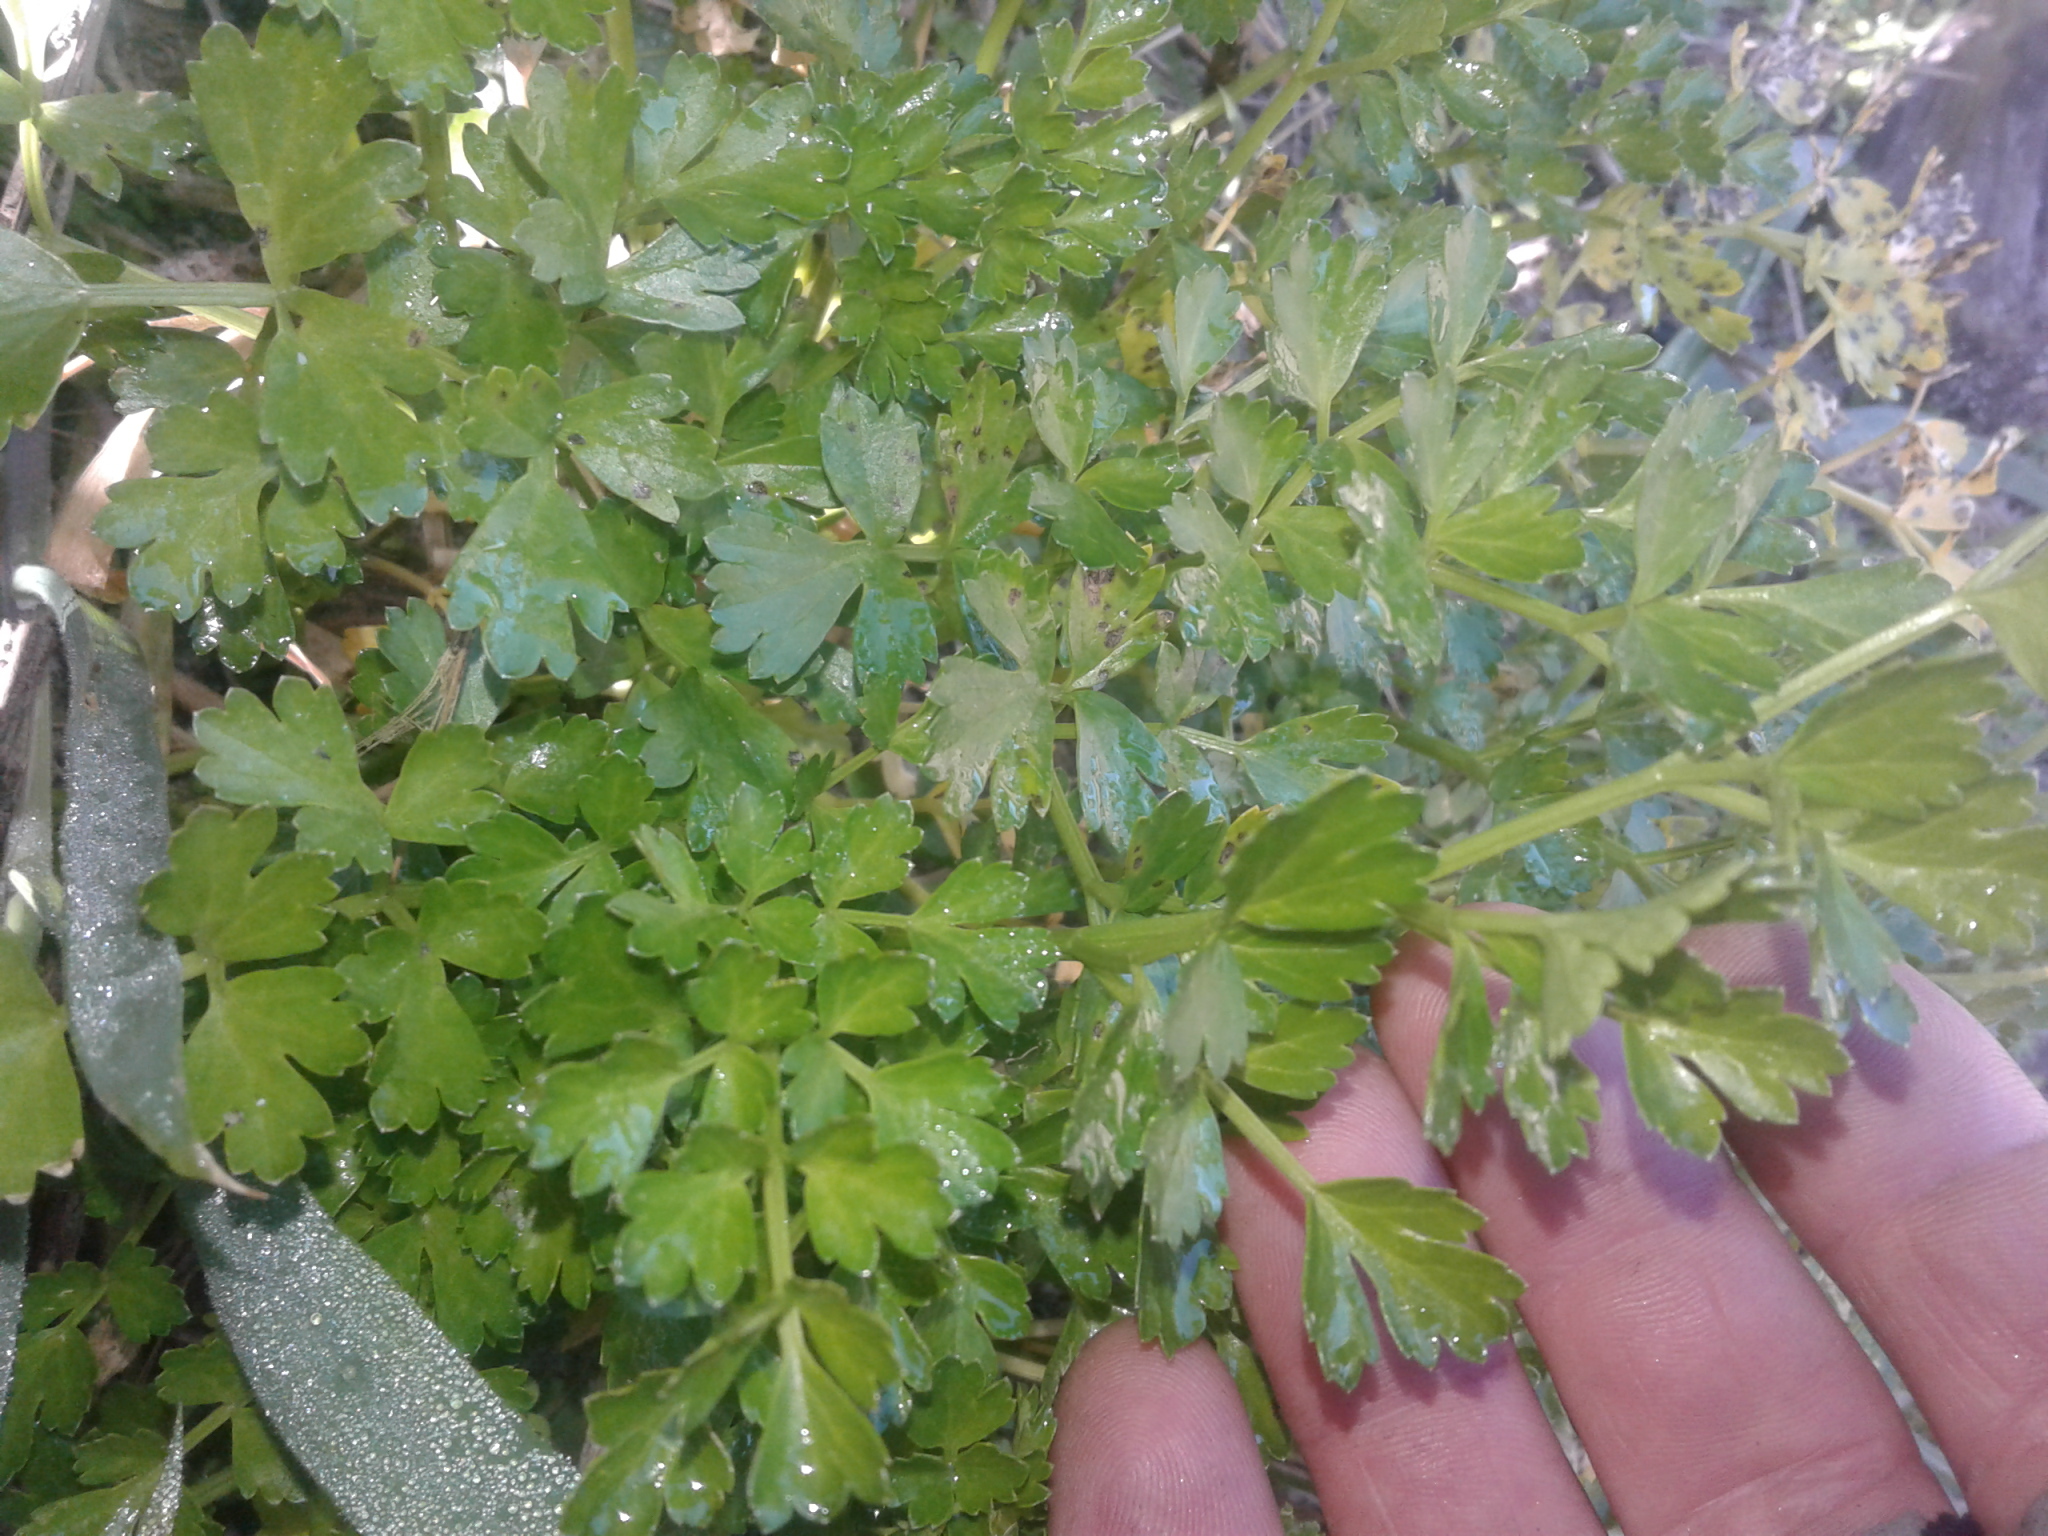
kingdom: Plantae
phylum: Tracheophyta
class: Magnoliopsida
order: Apiales
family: Apiaceae
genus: Apium
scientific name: Apium prostratum
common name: Prostrate marshwort
